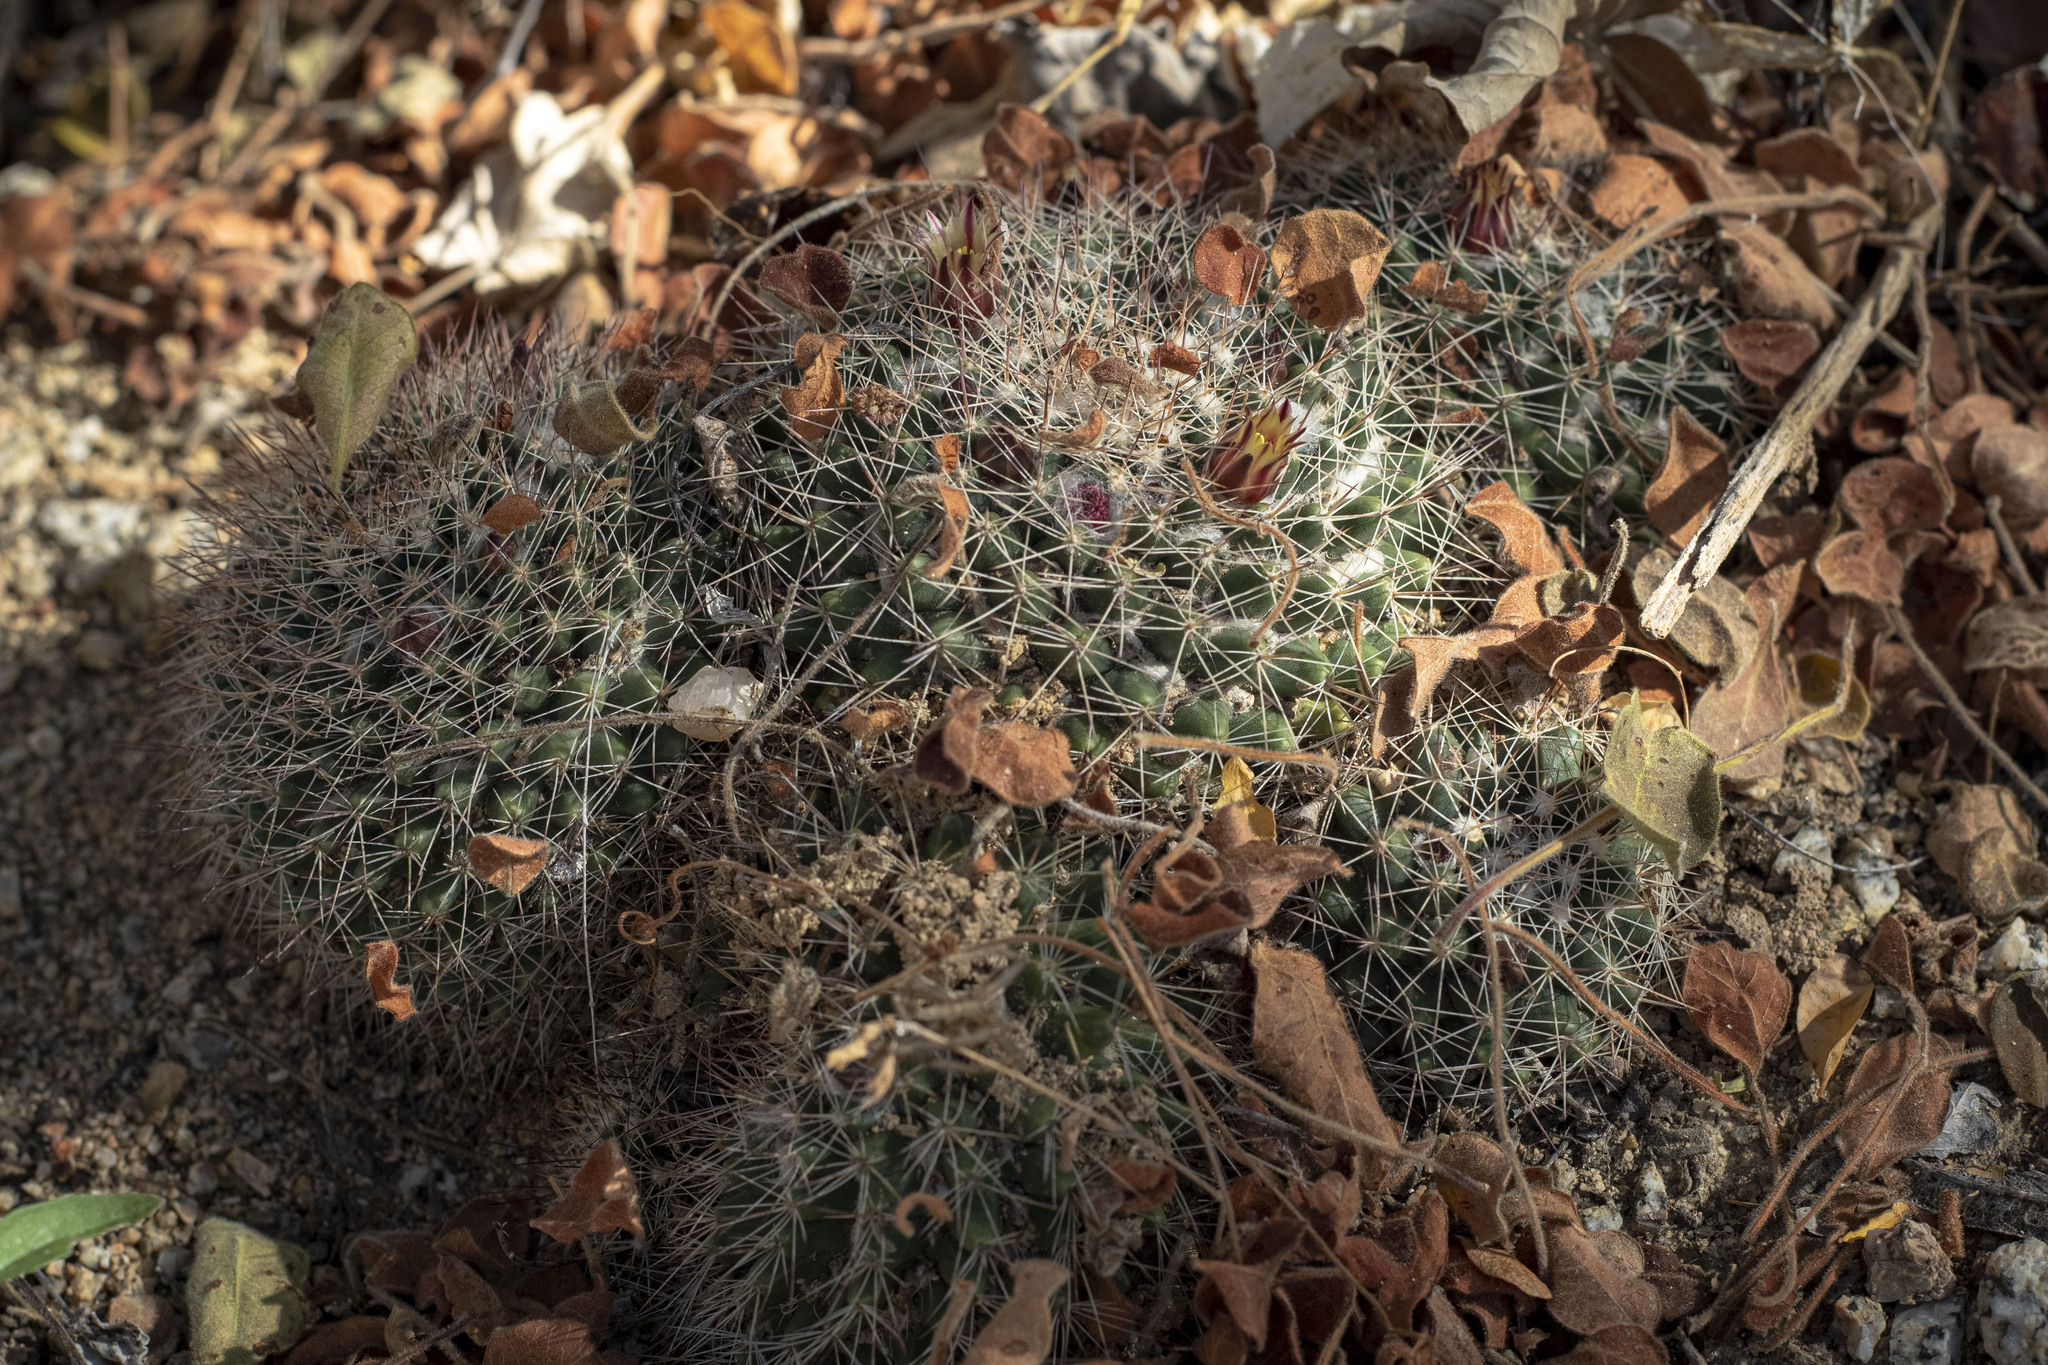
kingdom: Plantae
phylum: Tracheophyta
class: Magnoliopsida
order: Caryophyllales
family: Cactaceae
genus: Mammillaria
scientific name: Mammillaria petrophila
